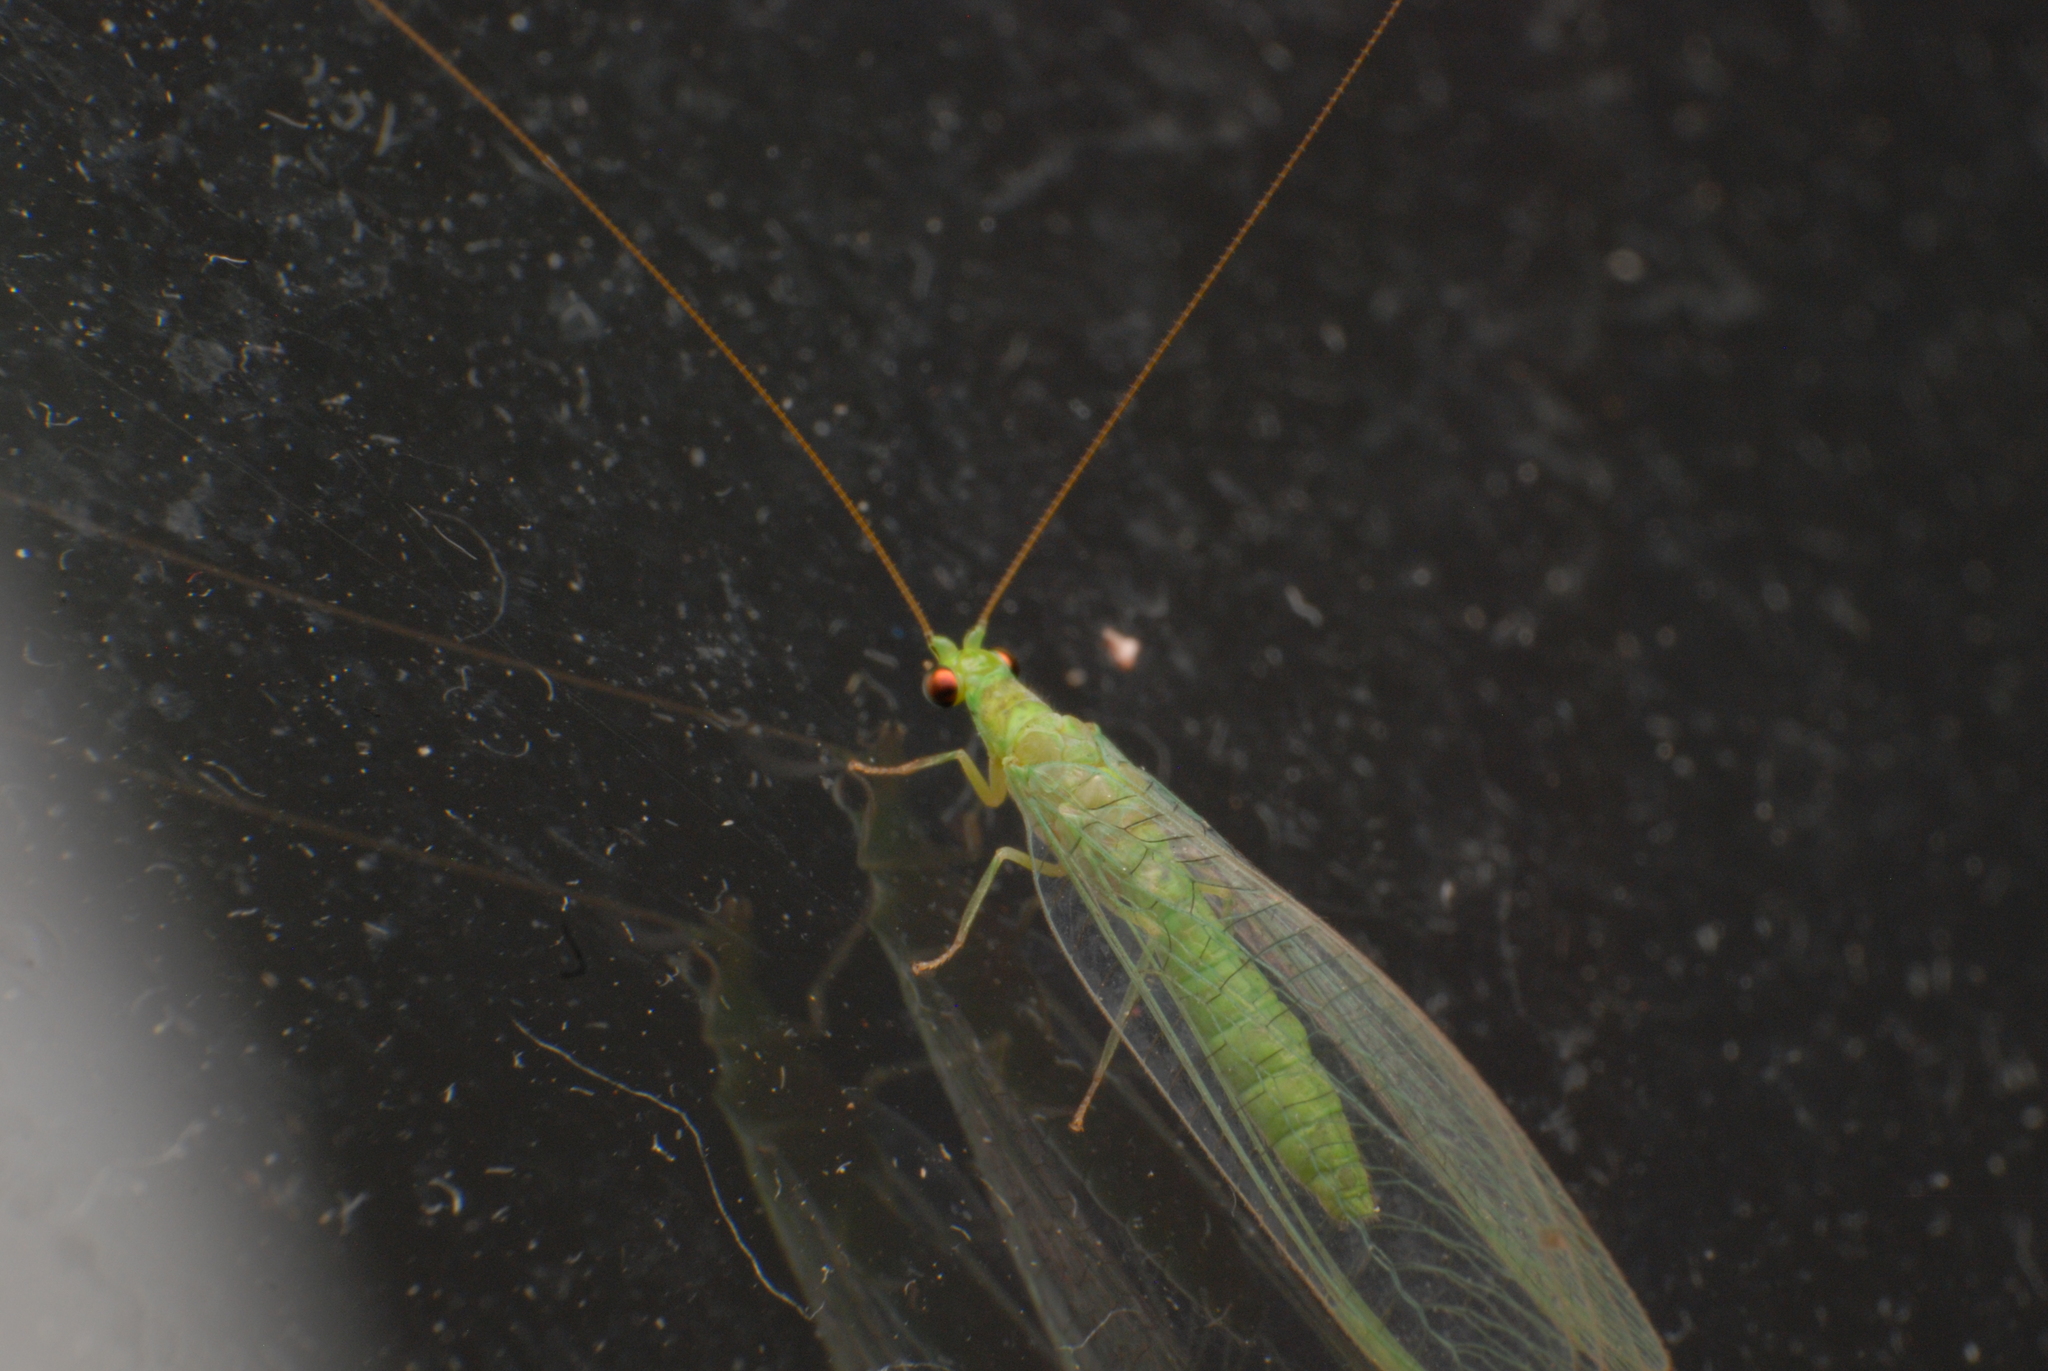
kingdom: Animalia
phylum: Arthropoda
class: Insecta
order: Neuroptera
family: Chrysopidae
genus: Mallada
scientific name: Mallada signatus
